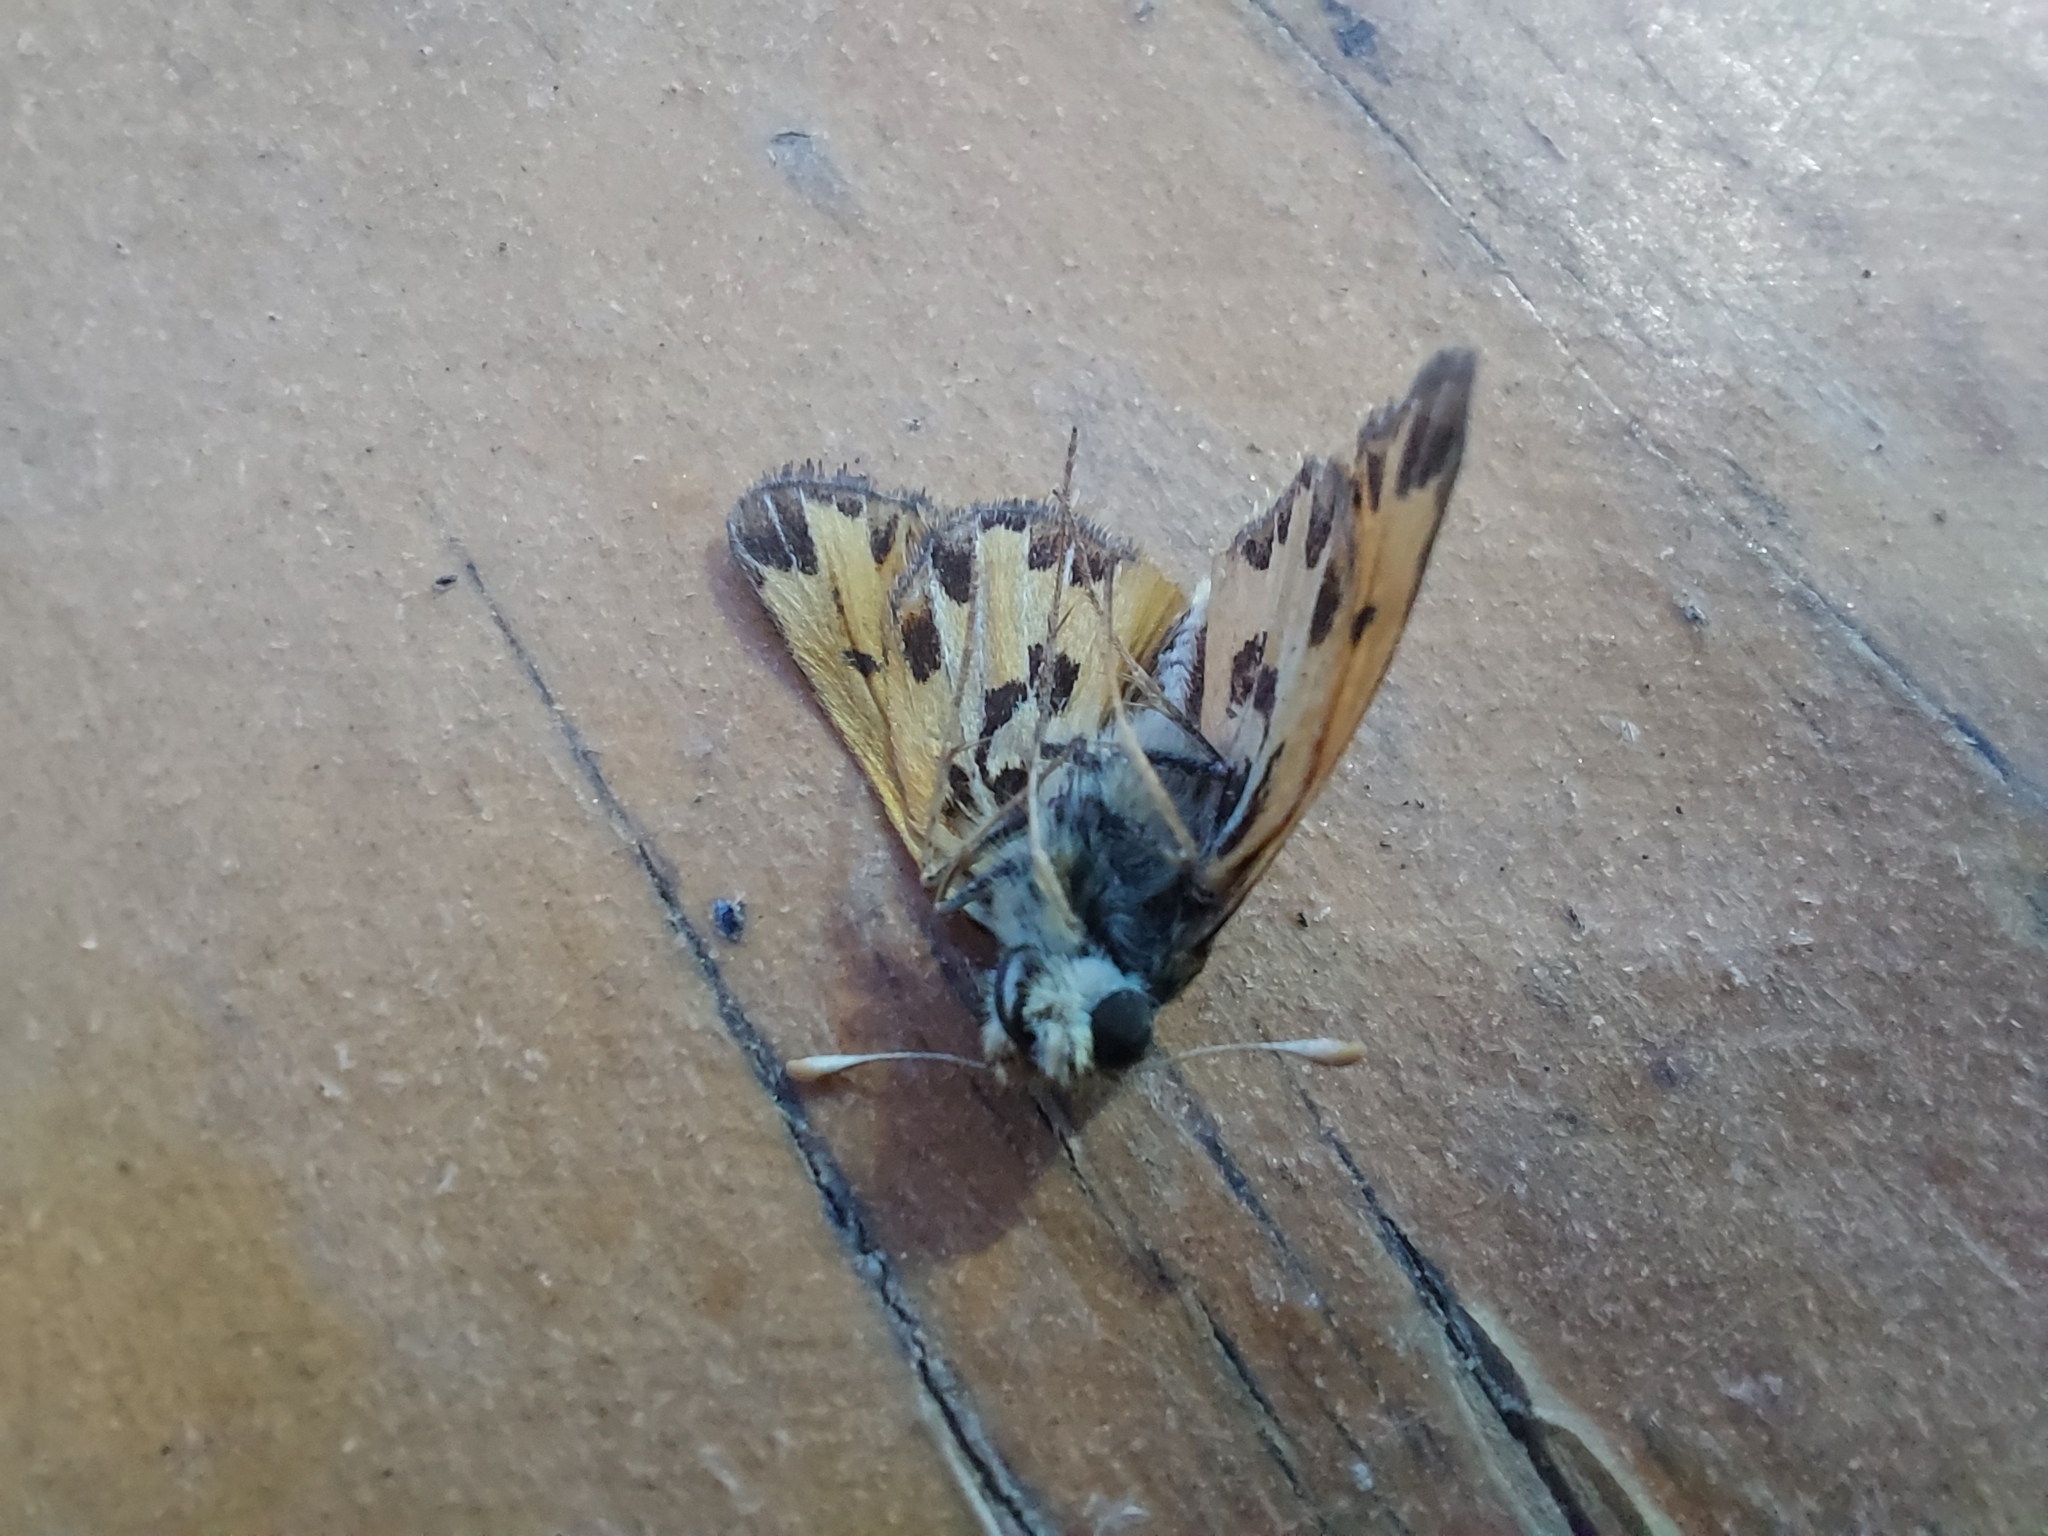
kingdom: Animalia
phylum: Arthropoda
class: Insecta
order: Lepidoptera
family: Hesperiidae
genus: Hylephila
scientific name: Hylephila fasciolata
